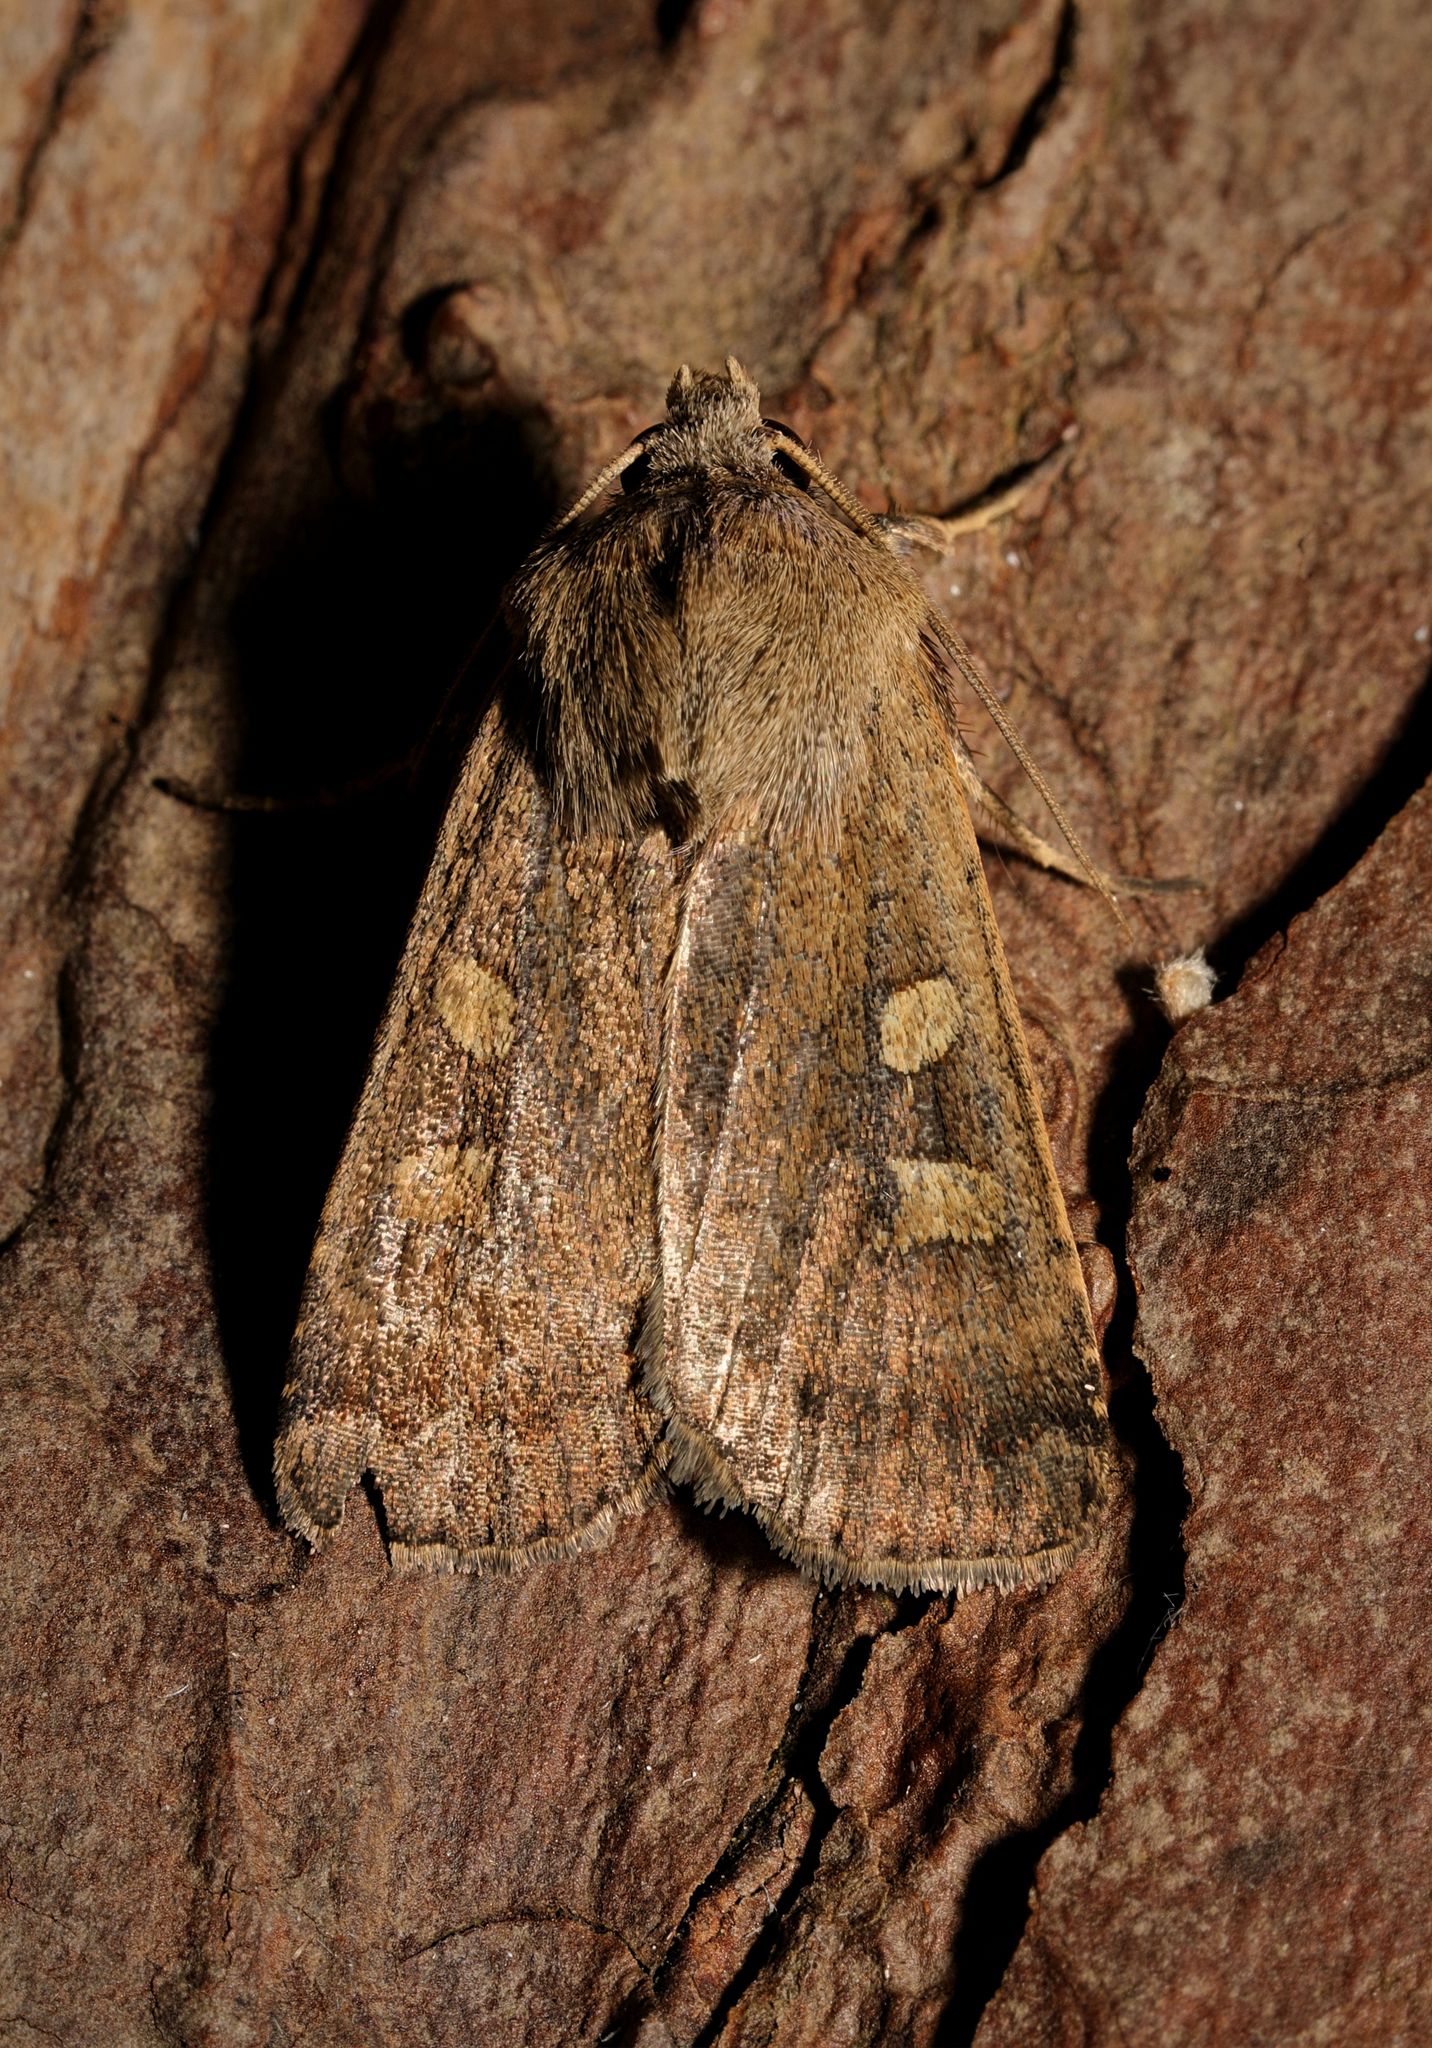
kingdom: Animalia
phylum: Arthropoda
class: Insecta
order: Lepidoptera
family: Noctuidae
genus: Xestia
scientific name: Xestia xanthographa
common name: Square-spot rustic
